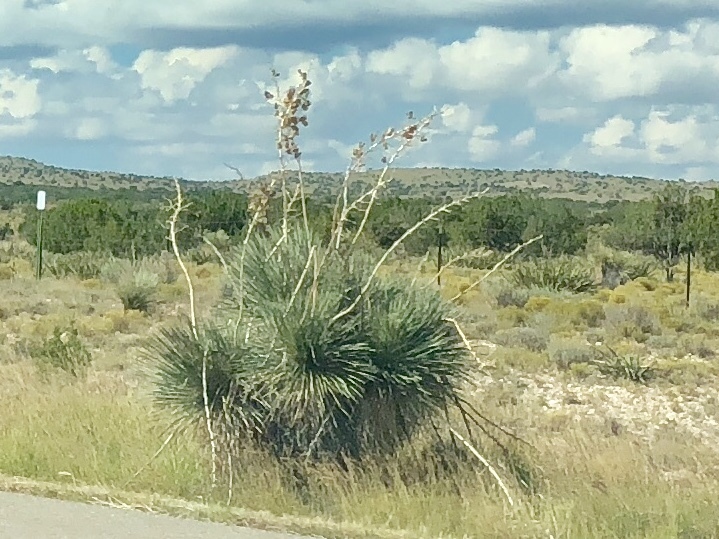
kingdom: Plantae
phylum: Tracheophyta
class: Liliopsida
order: Asparagales
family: Asparagaceae
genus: Yucca
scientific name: Yucca elata
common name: Palmella
